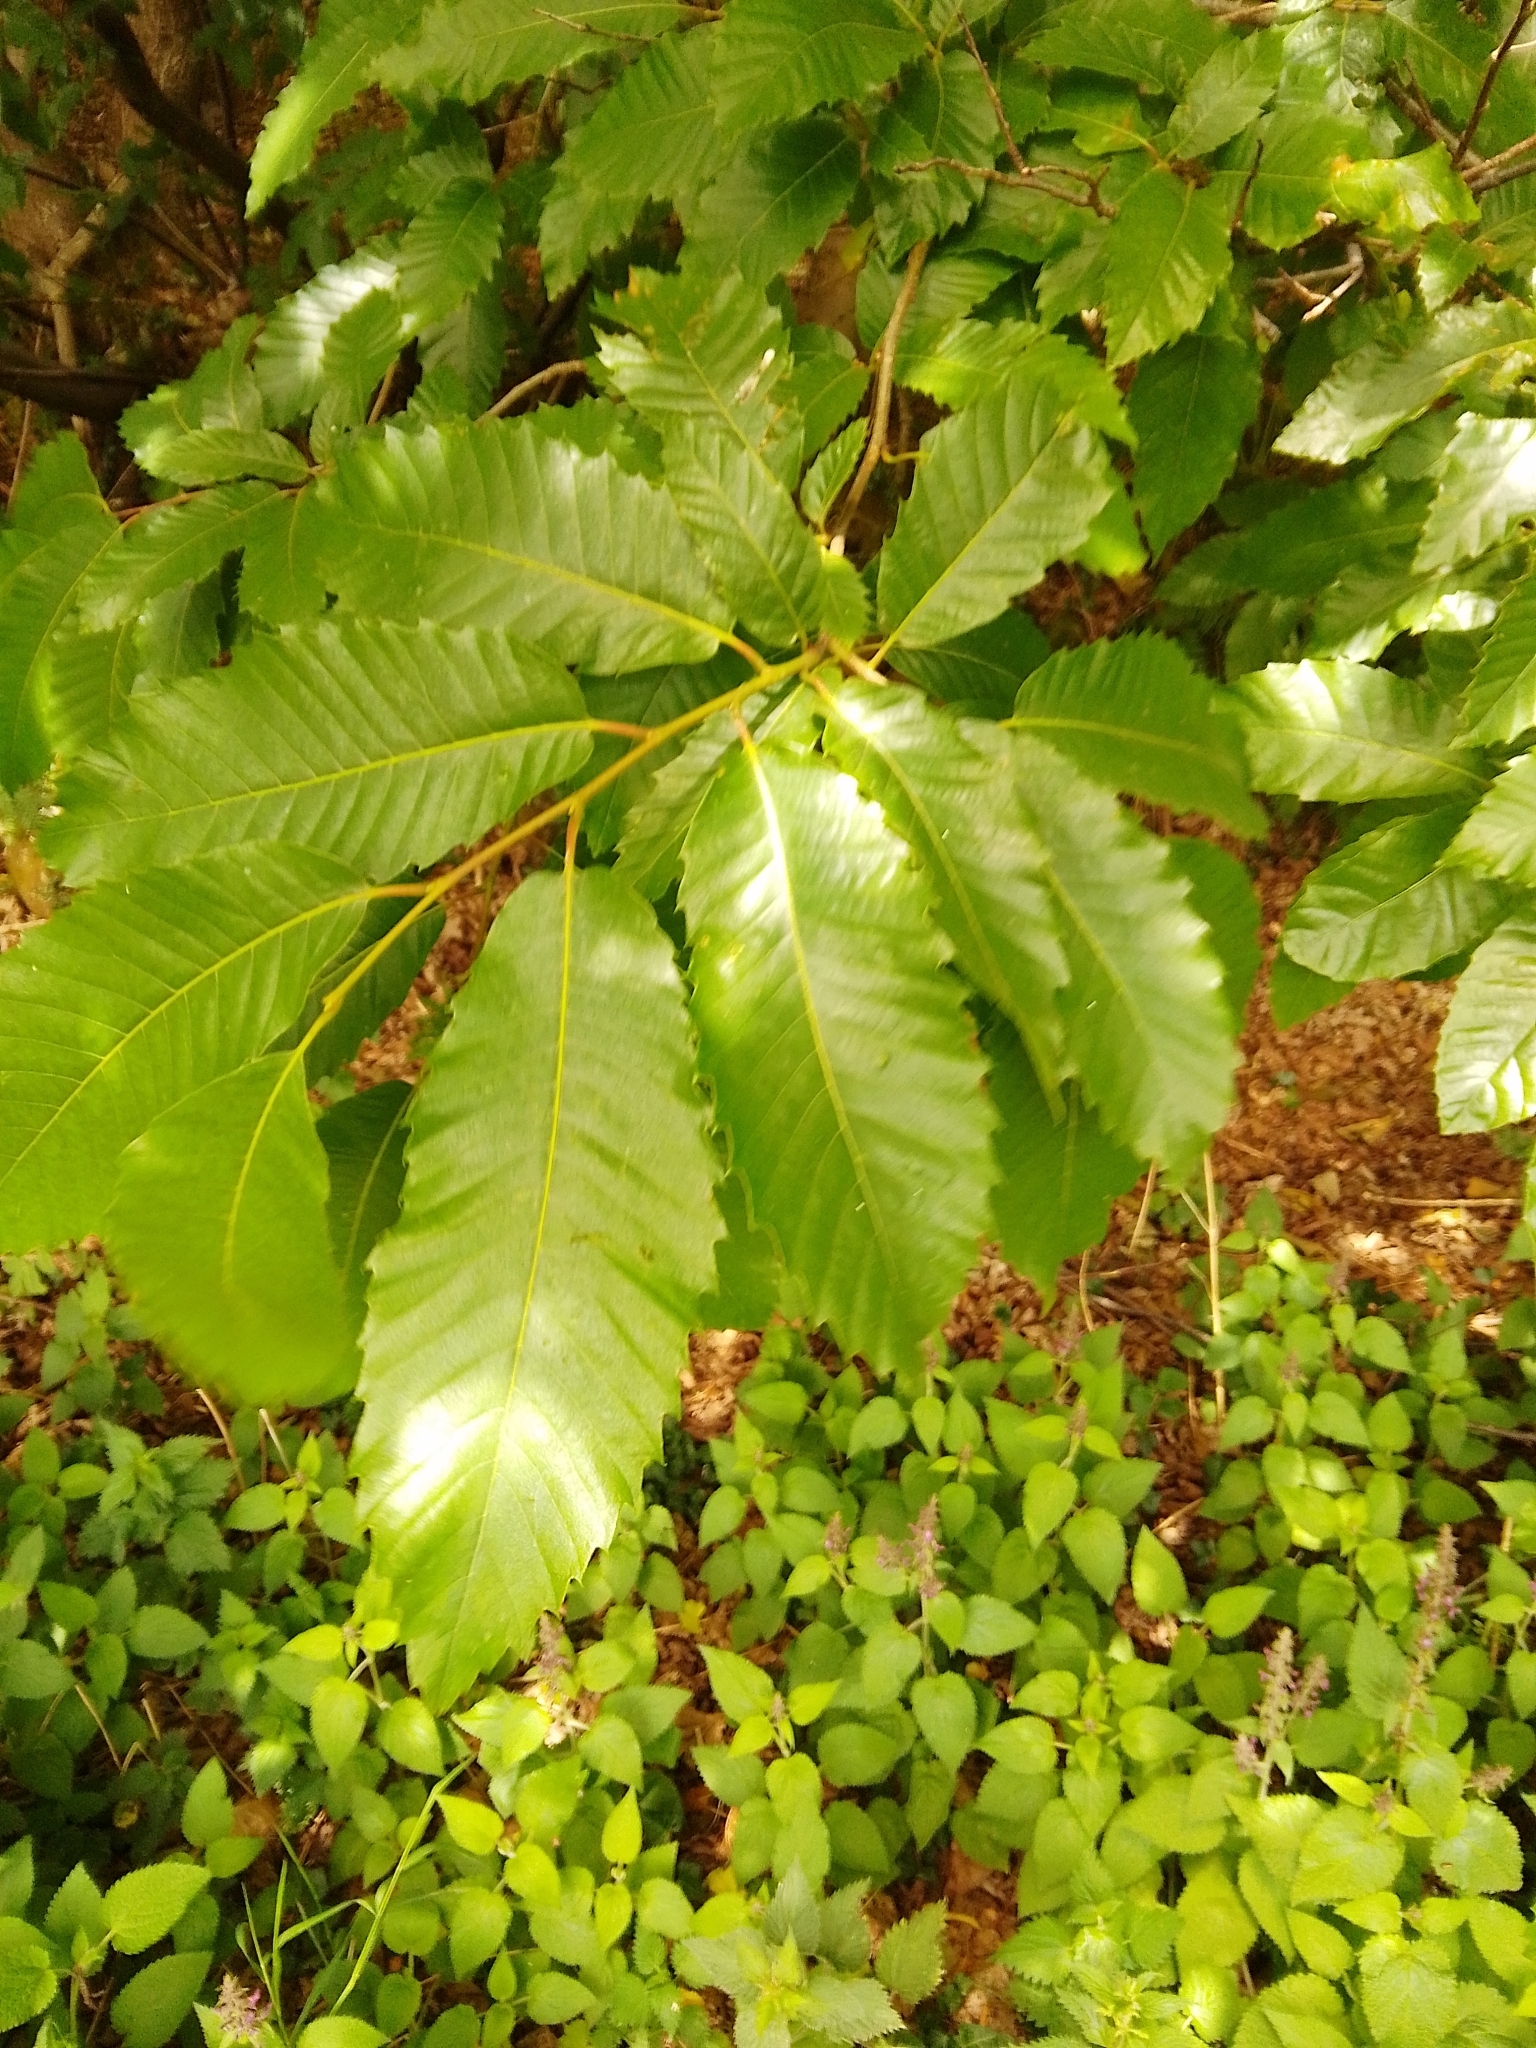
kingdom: Plantae
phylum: Tracheophyta
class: Magnoliopsida
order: Fagales
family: Fagaceae
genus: Castanea
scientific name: Castanea sativa
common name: Sweet chestnut
